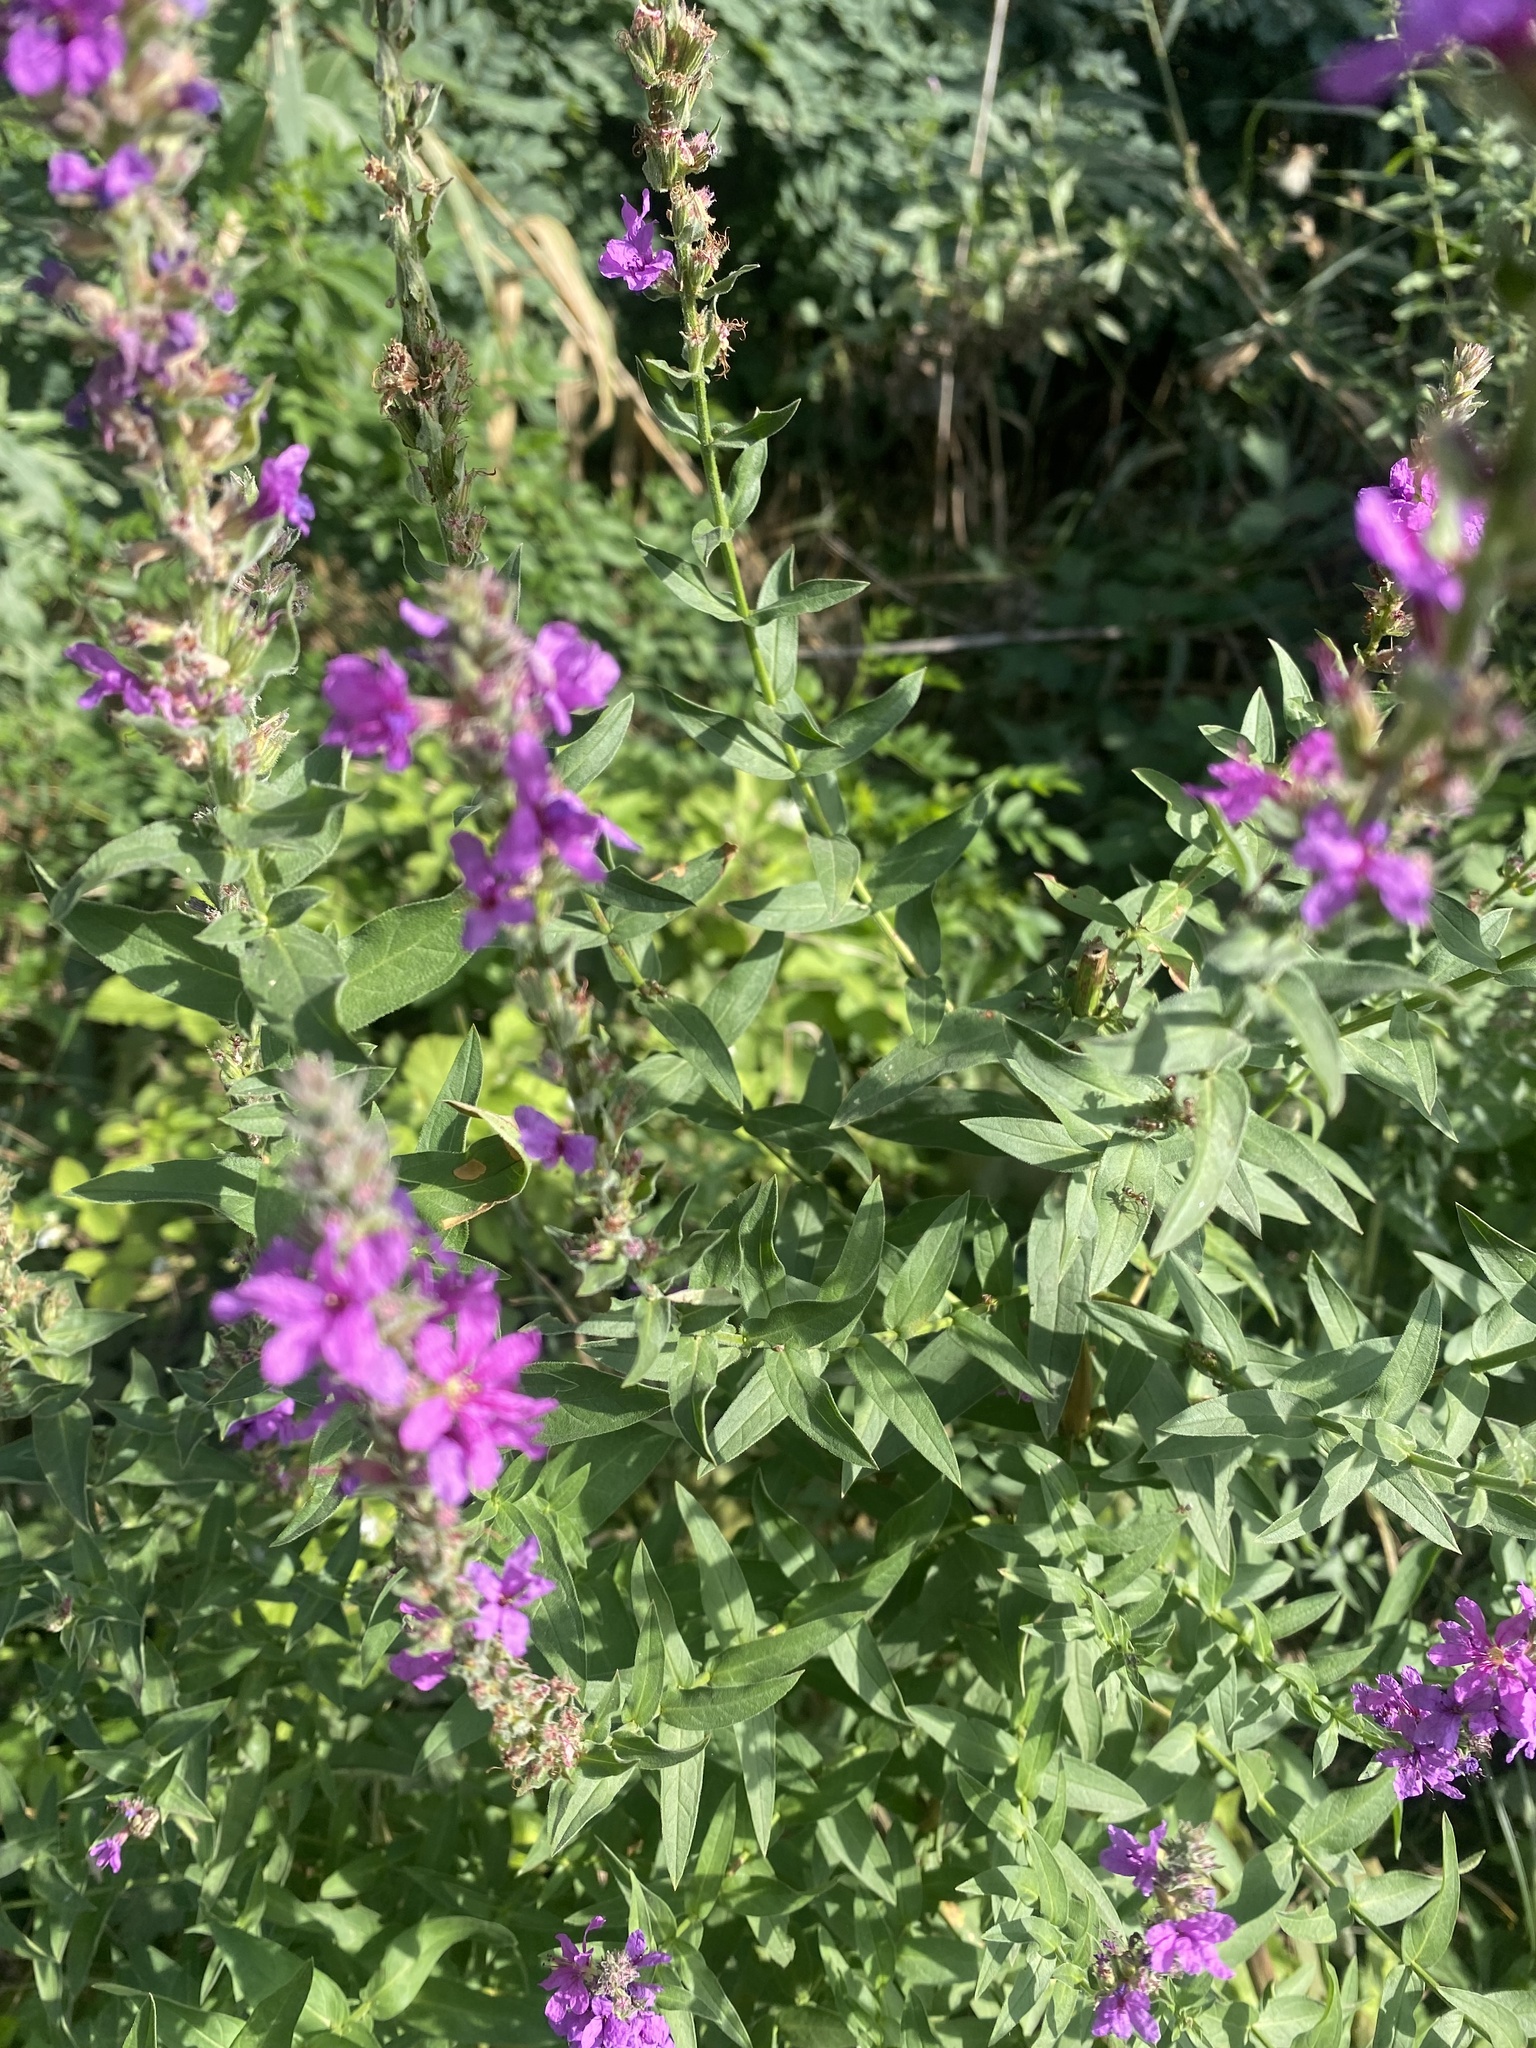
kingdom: Plantae
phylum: Tracheophyta
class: Magnoliopsida
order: Myrtales
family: Lythraceae
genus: Lythrum
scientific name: Lythrum salicaria
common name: Purple loosestrife
